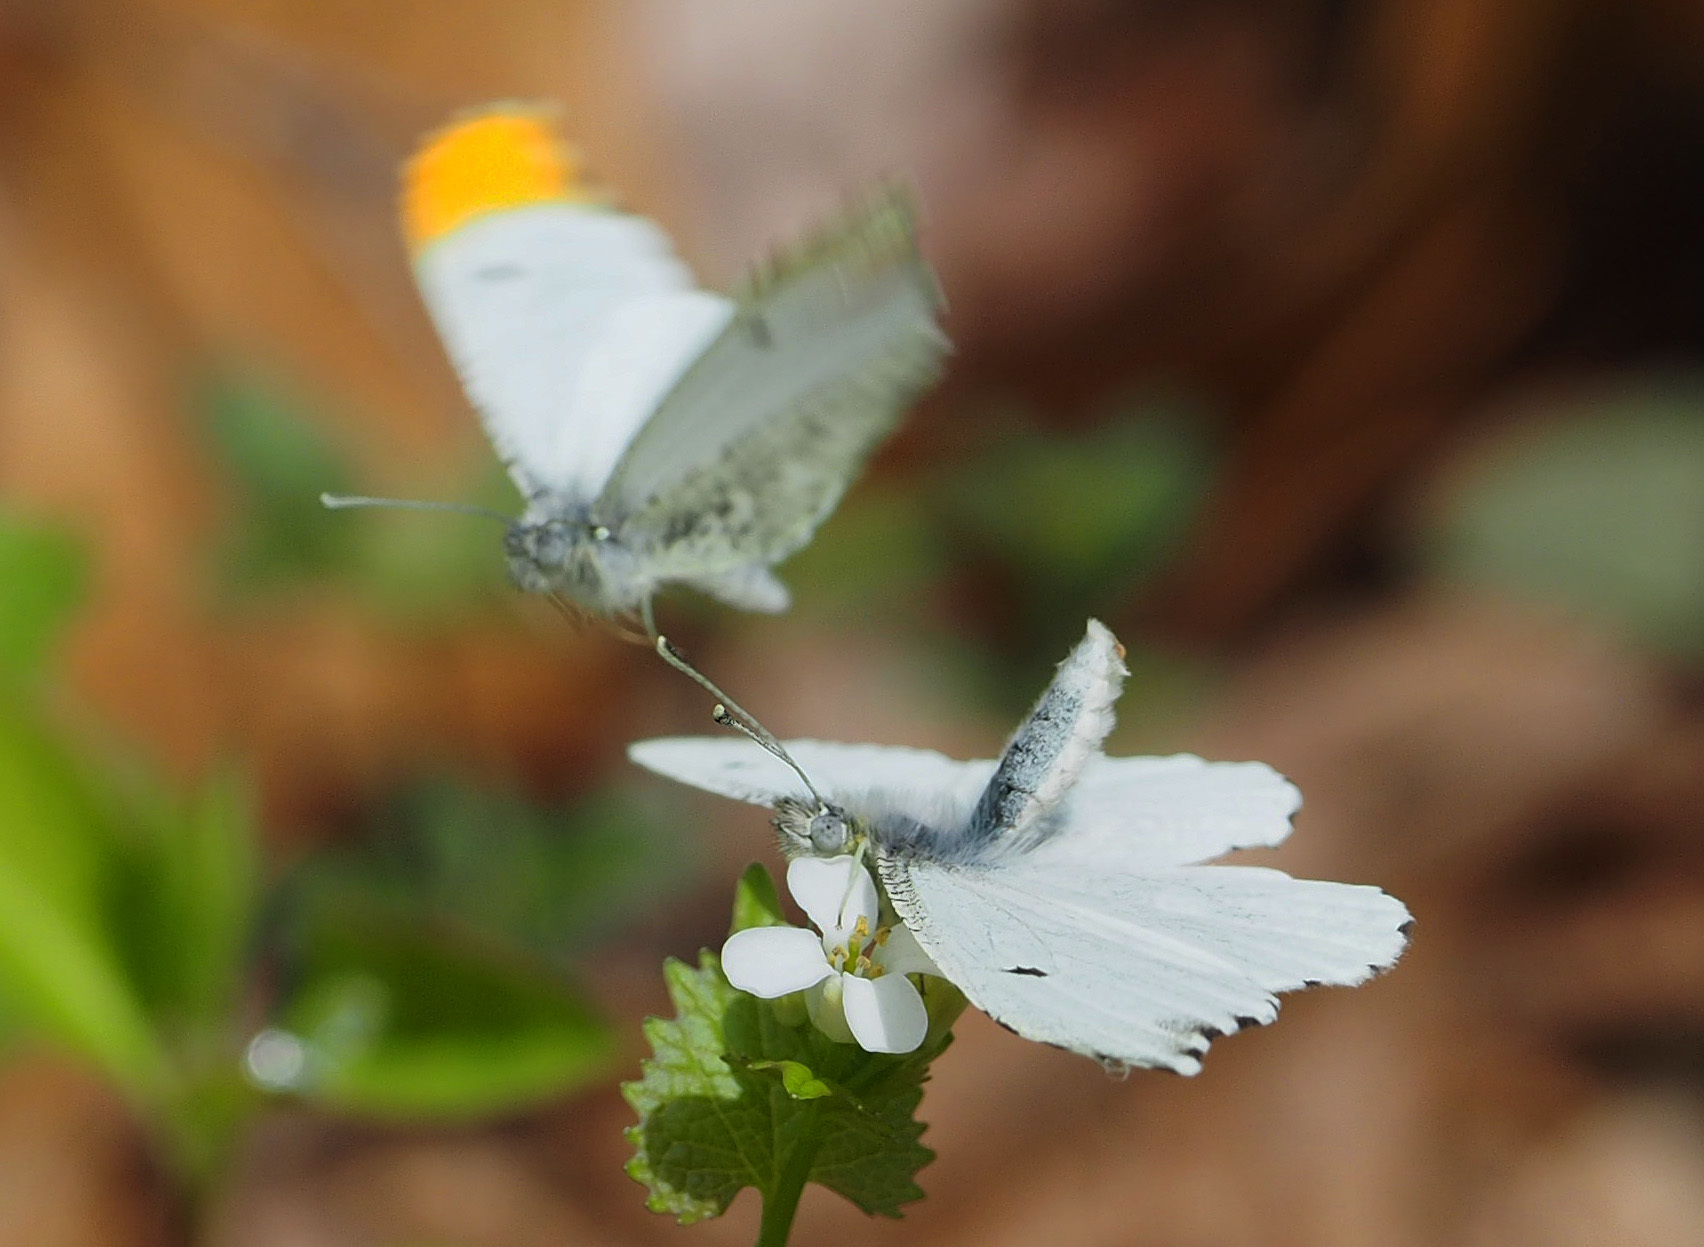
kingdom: Animalia
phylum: Arthropoda
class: Insecta
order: Lepidoptera
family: Pieridae
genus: Anthocharis
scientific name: Anthocharis midea
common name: Falcate orangetip
